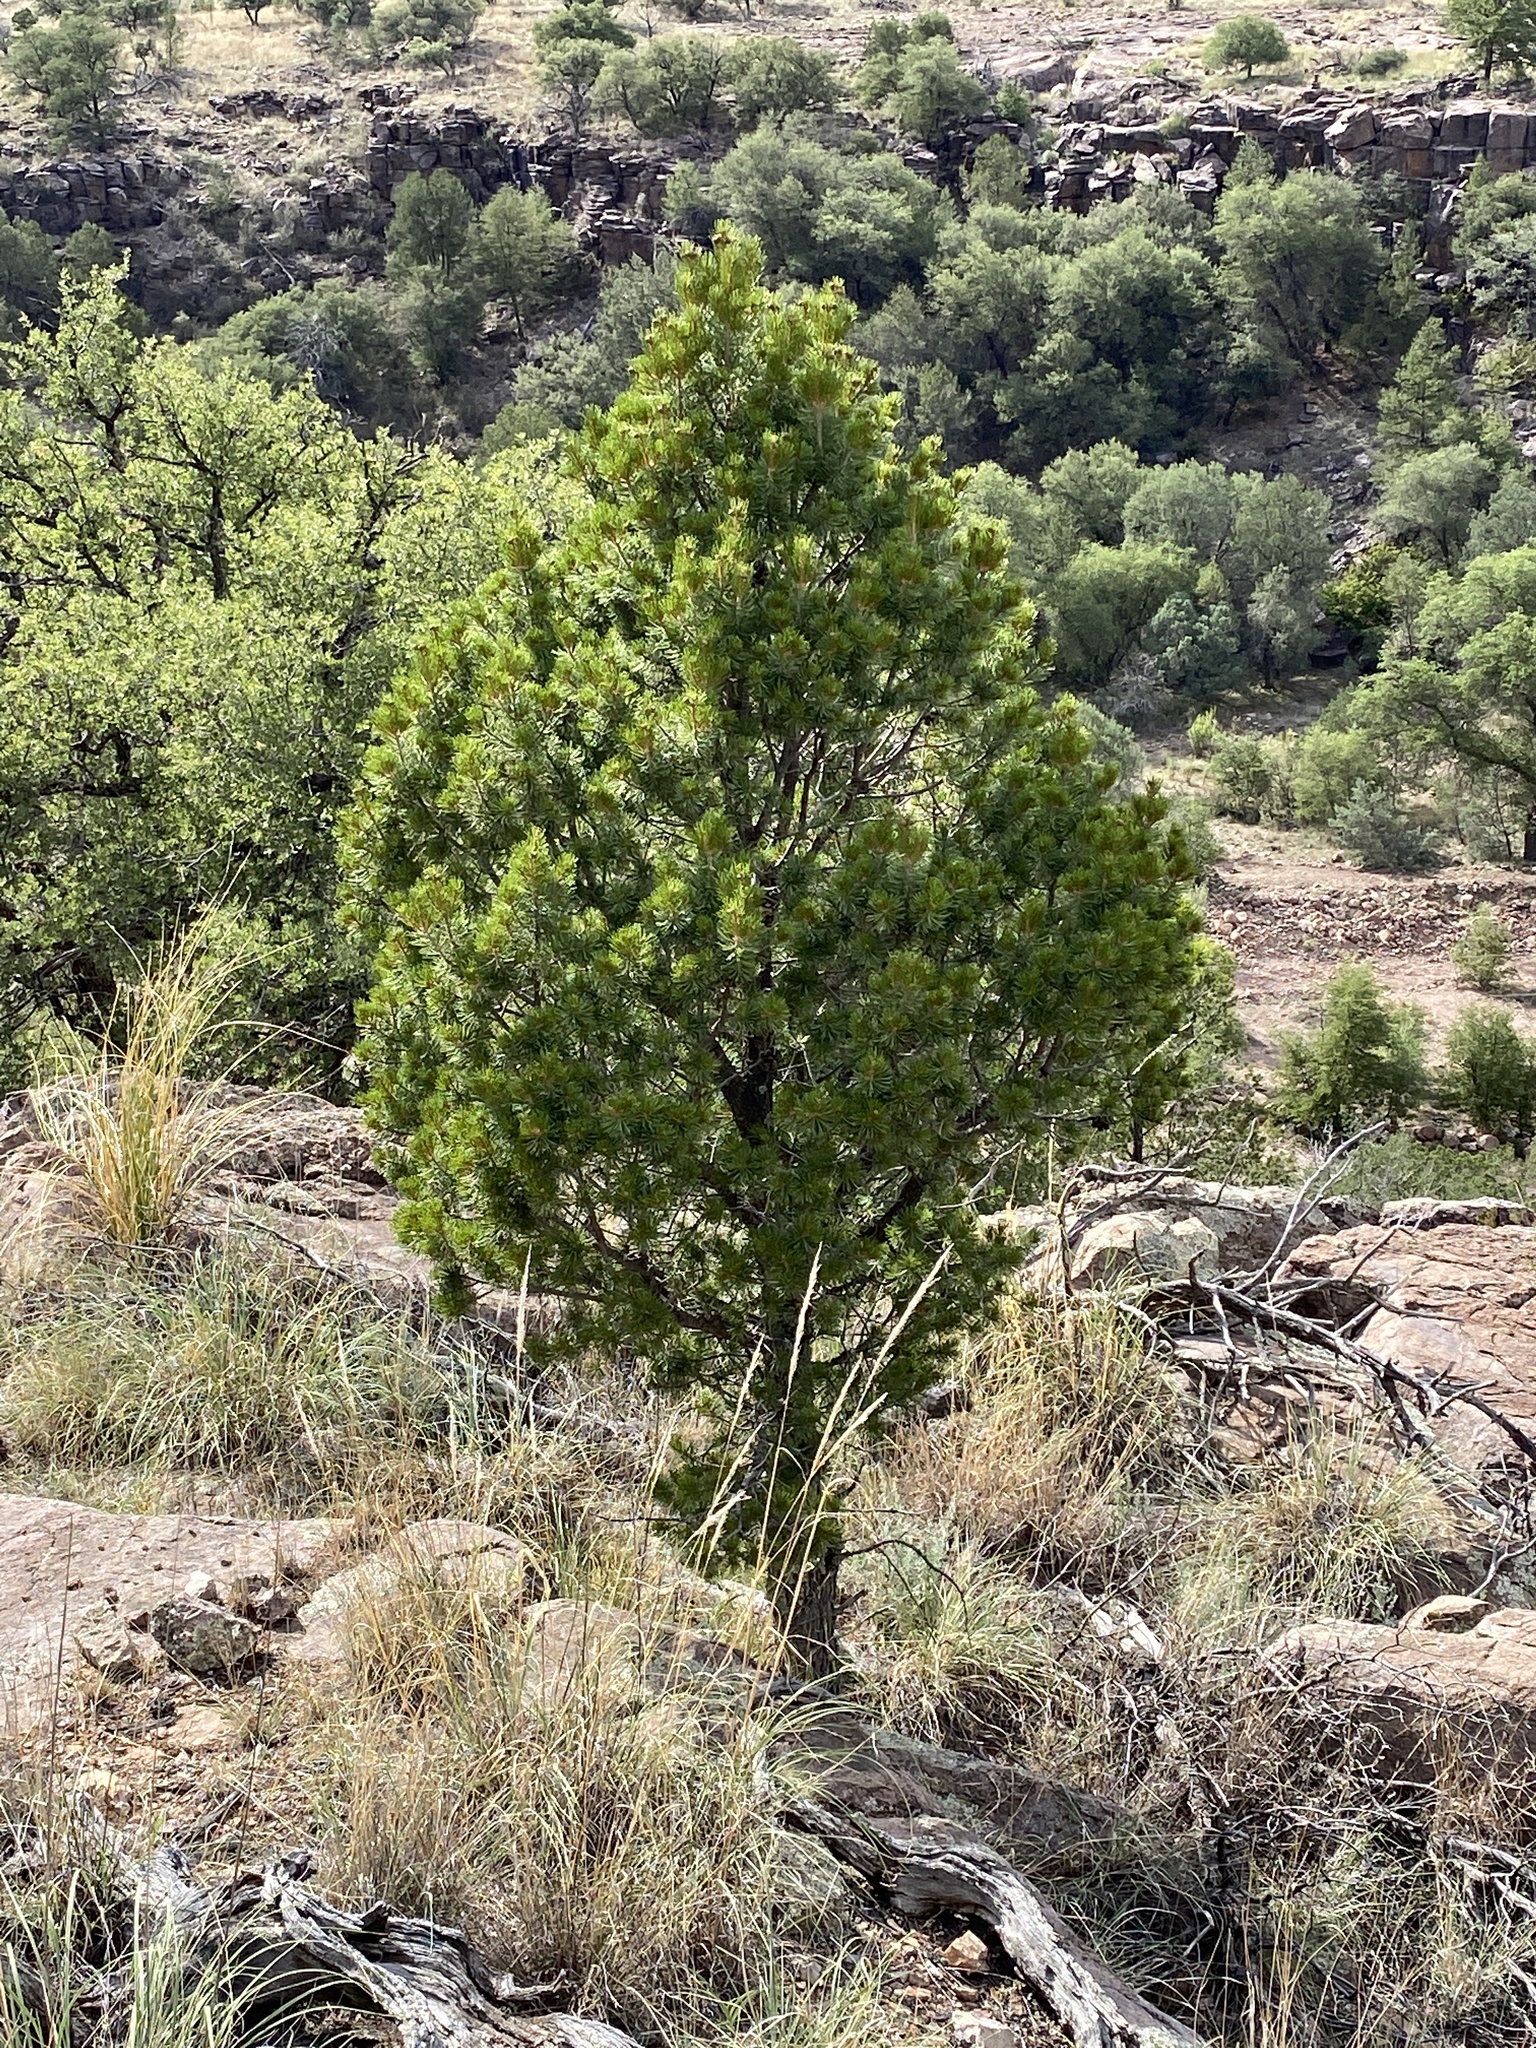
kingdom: Plantae
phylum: Tracheophyta
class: Pinopsida
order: Pinales
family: Pinaceae
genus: Pinus
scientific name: Pinus cembroides
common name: Mexican nut pine
